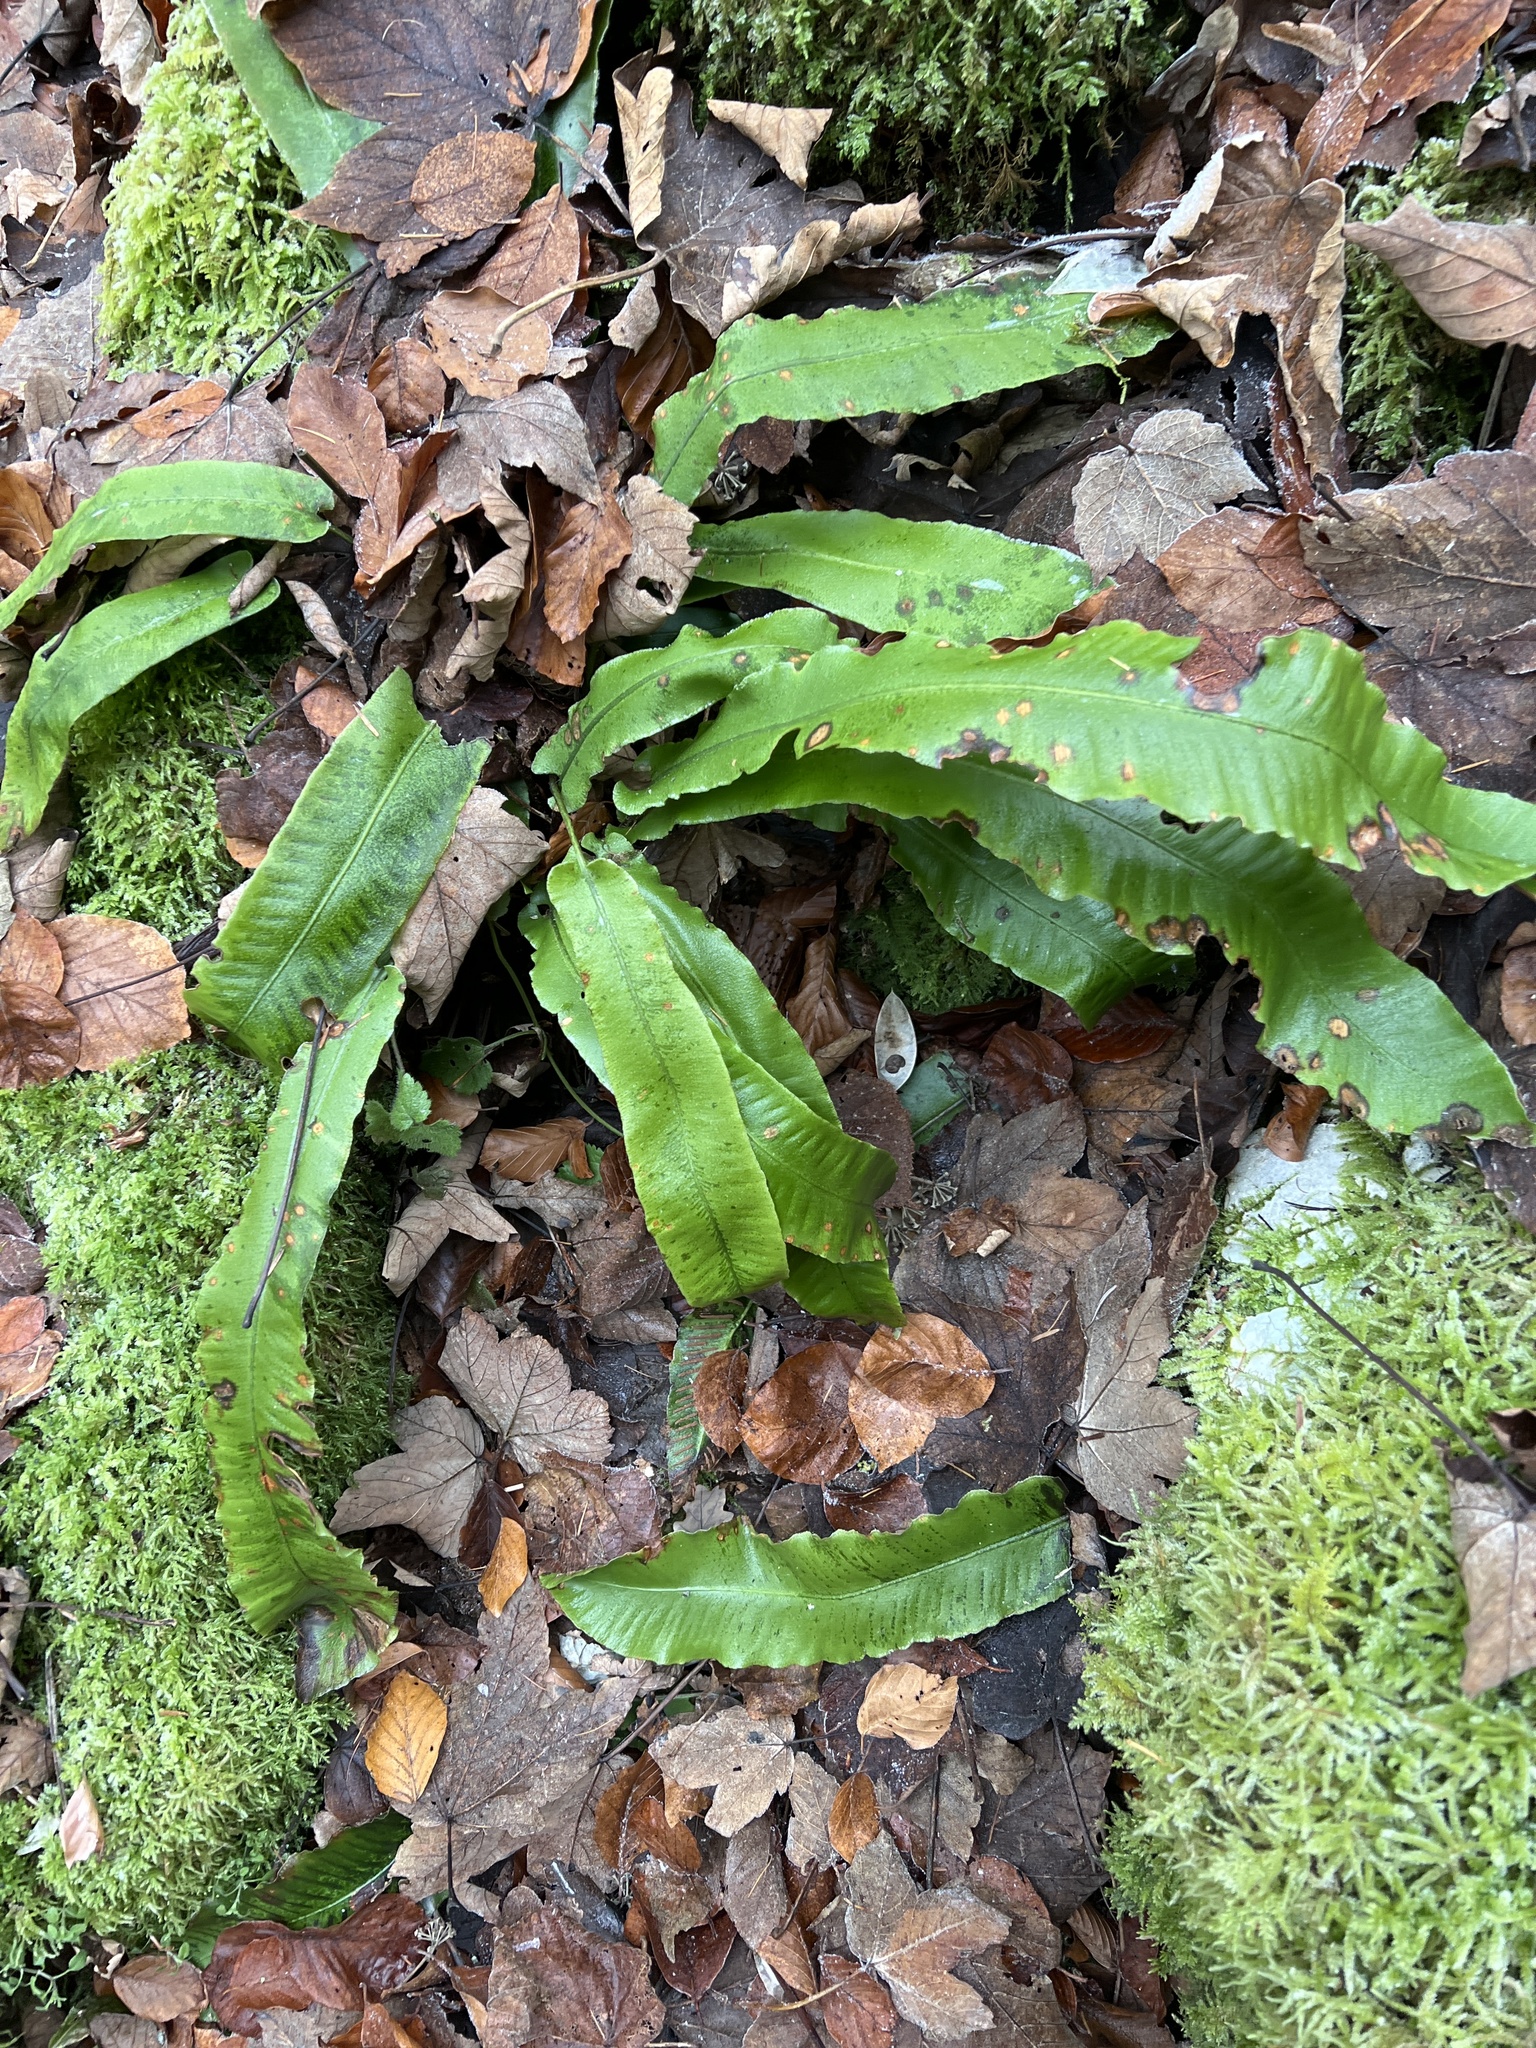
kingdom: Plantae
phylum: Tracheophyta
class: Polypodiopsida
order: Polypodiales
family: Aspleniaceae
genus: Asplenium
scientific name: Asplenium scolopendrium
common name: Hart's-tongue fern
